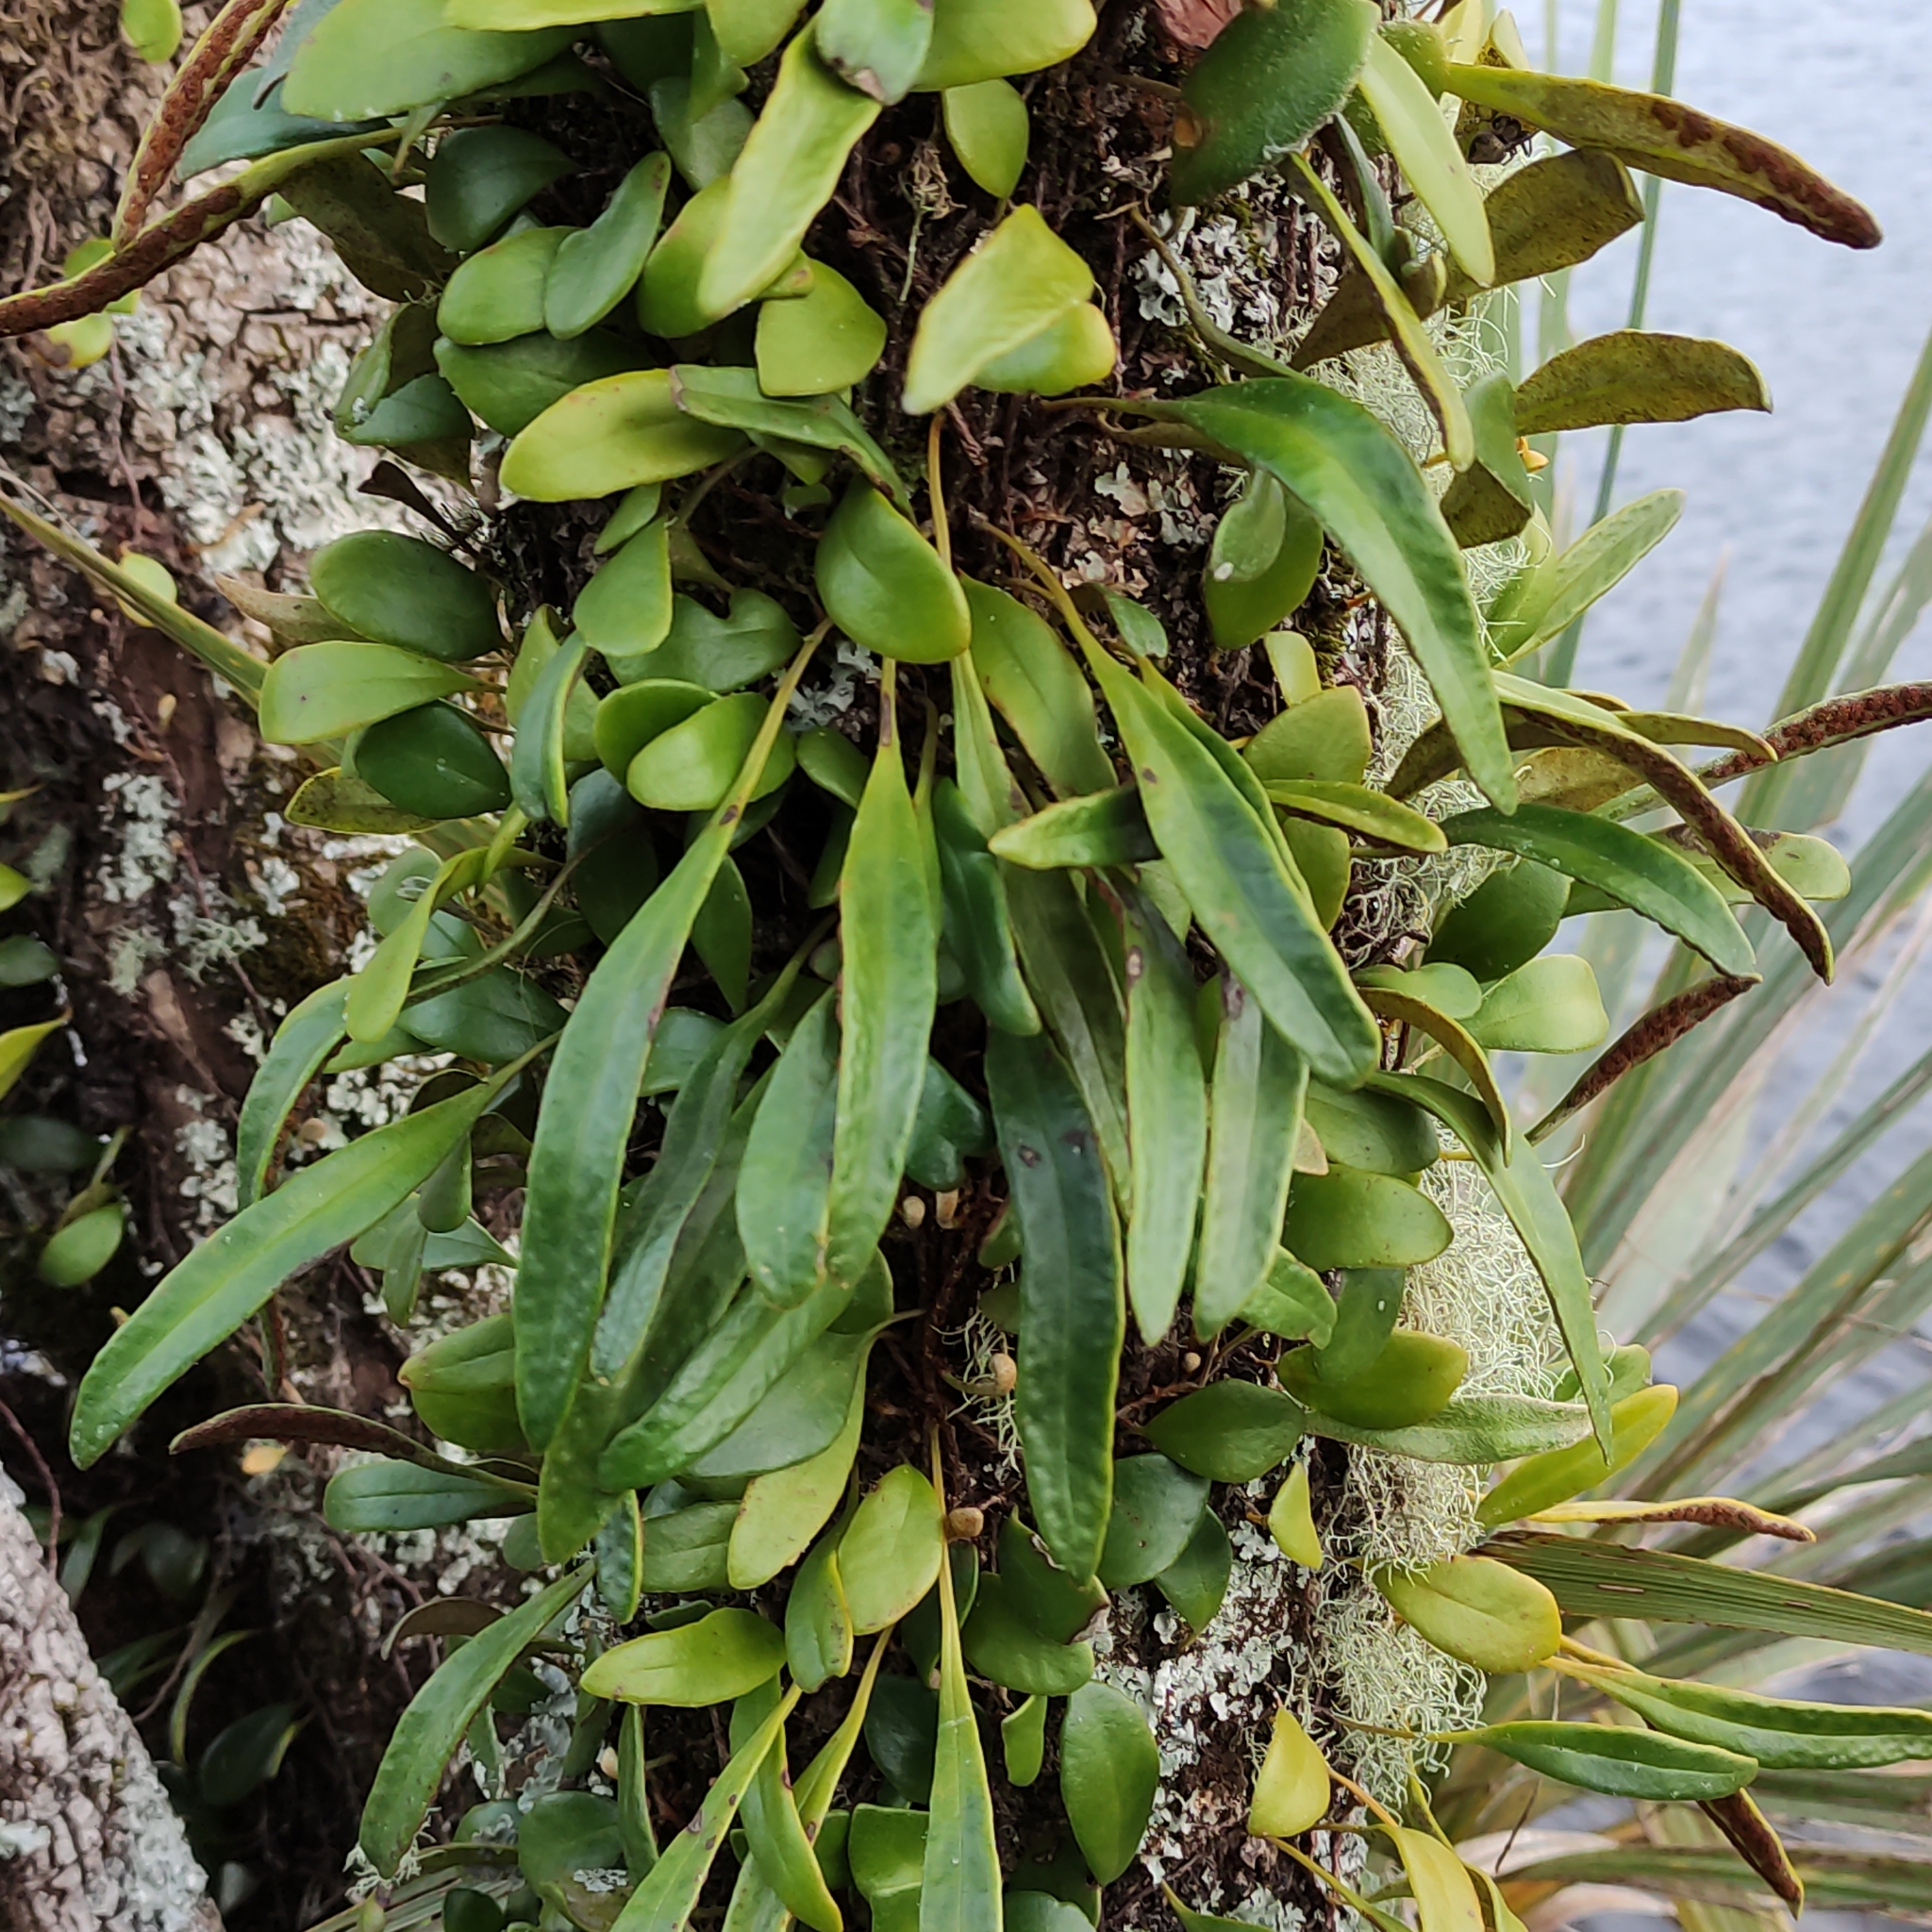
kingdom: Plantae
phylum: Tracheophyta
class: Polypodiopsida
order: Polypodiales
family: Polypodiaceae
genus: Pyrrosia
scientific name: Pyrrosia eleagnifolia
